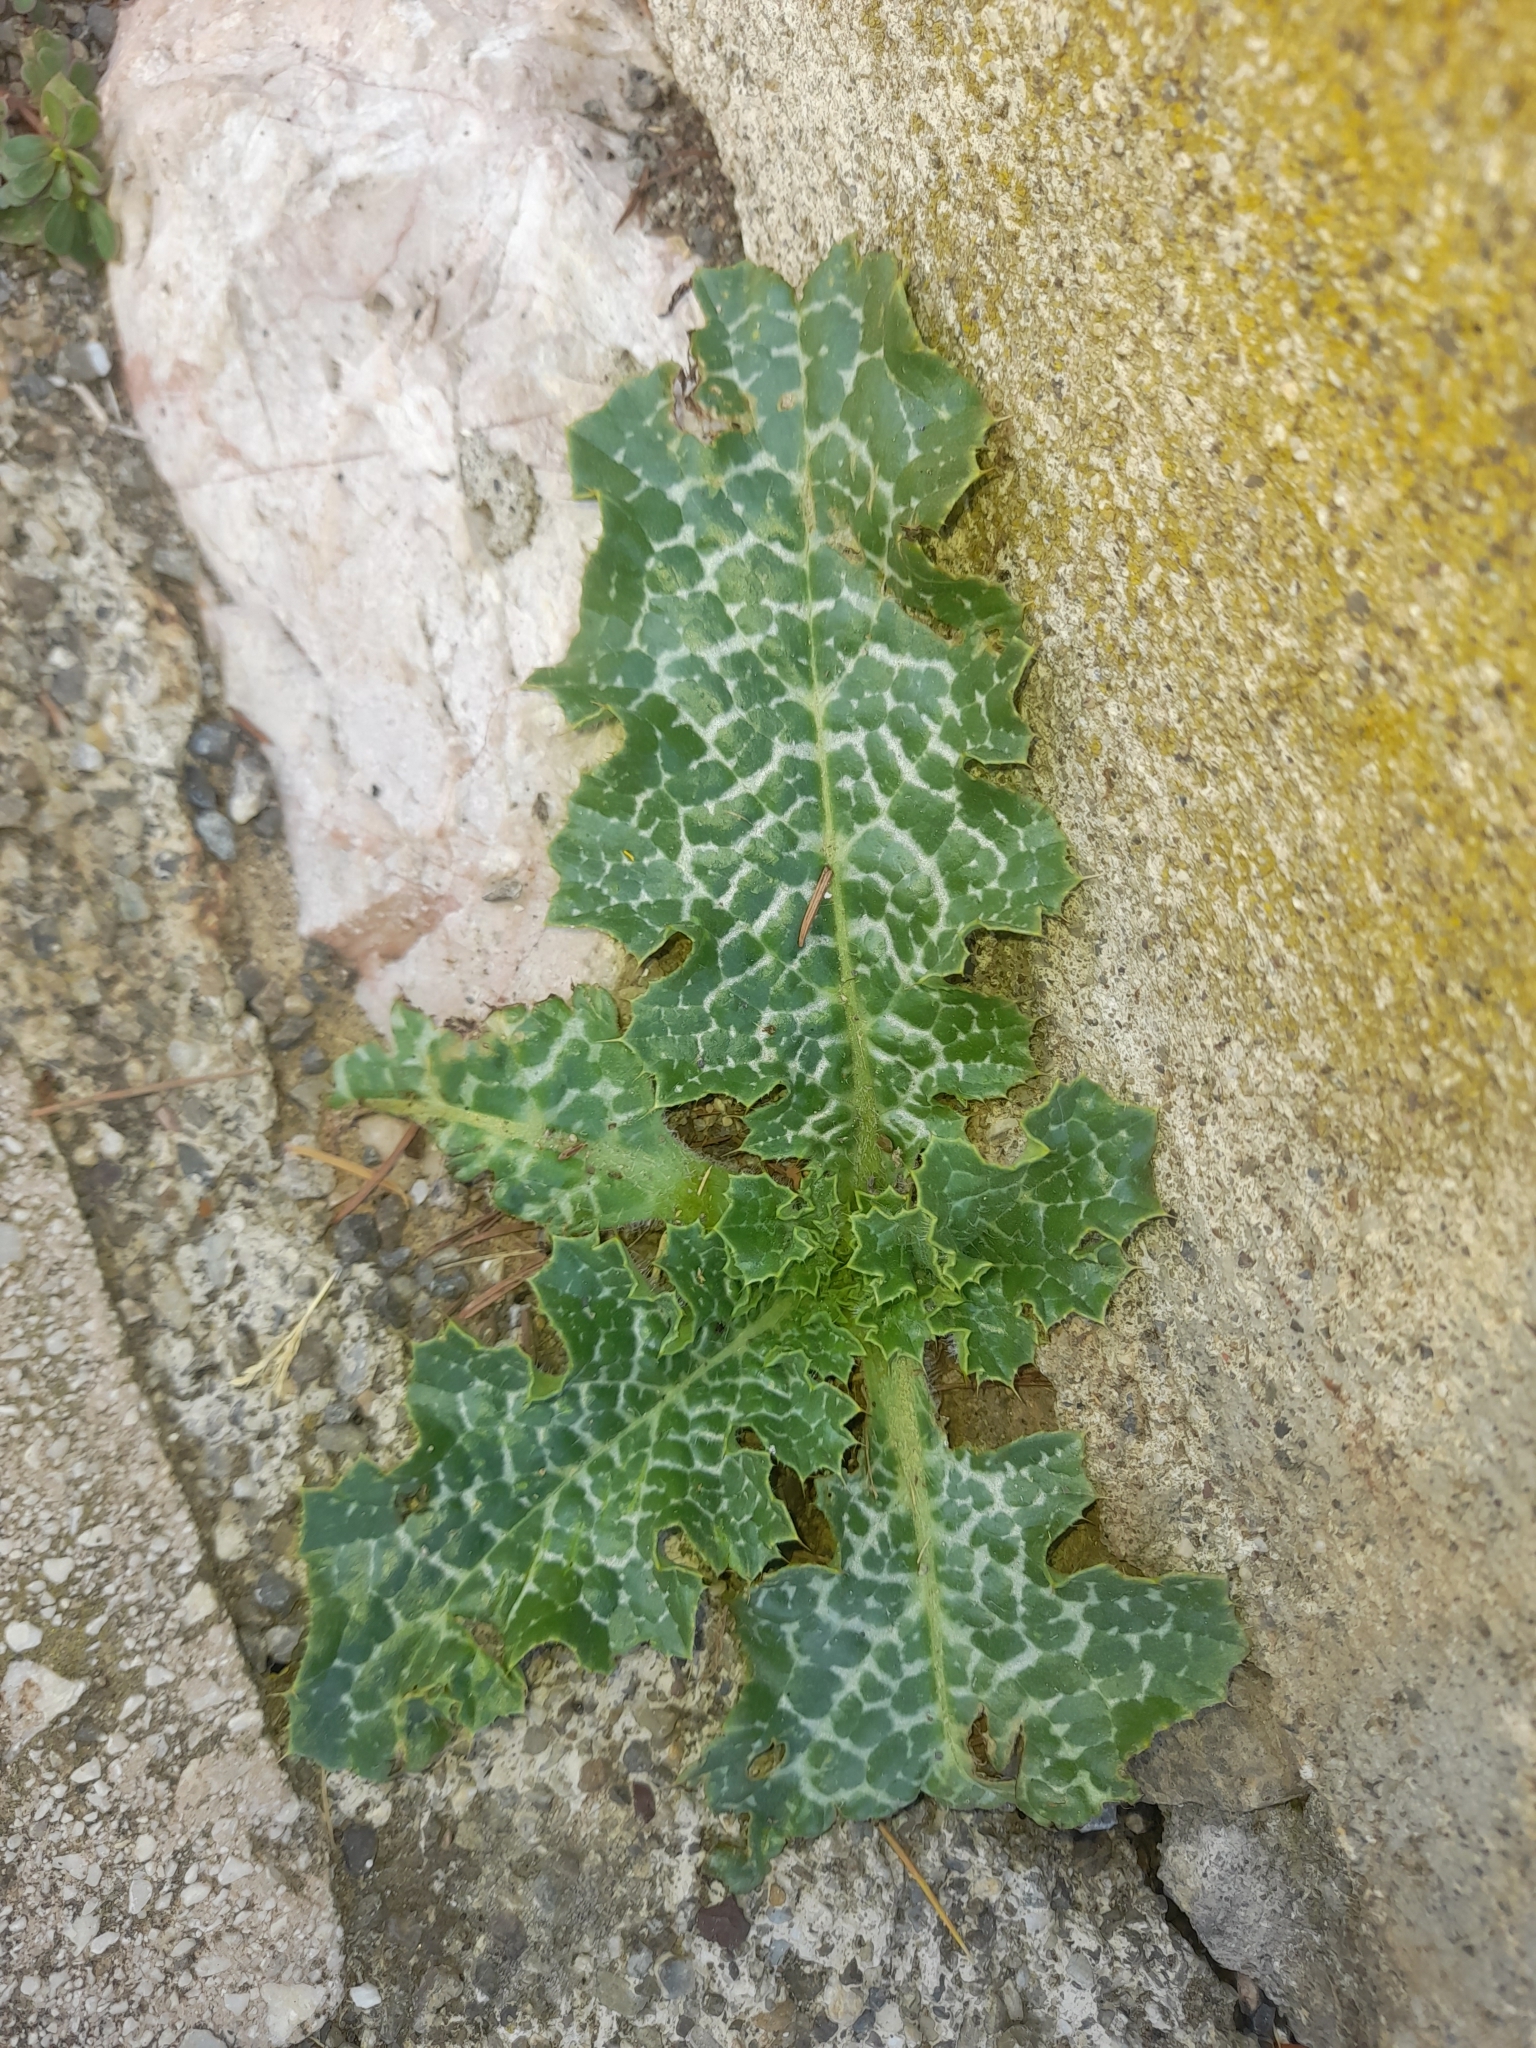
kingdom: Plantae
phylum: Tracheophyta
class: Magnoliopsida
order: Asterales
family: Asteraceae
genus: Silybum
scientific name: Silybum marianum
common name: Milk thistle
